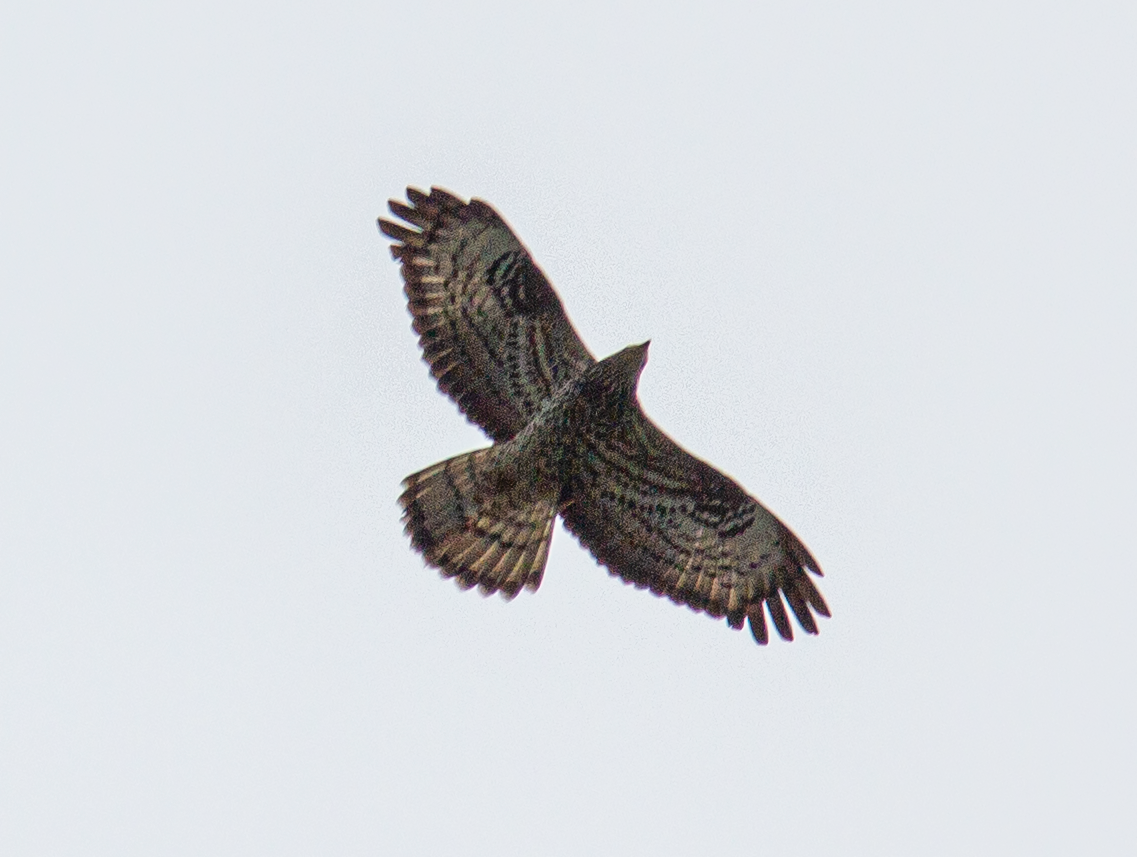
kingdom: Animalia
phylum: Chordata
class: Aves
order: Accipitriformes
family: Accipitridae
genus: Pernis
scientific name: Pernis apivorus
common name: European honey buzzard
